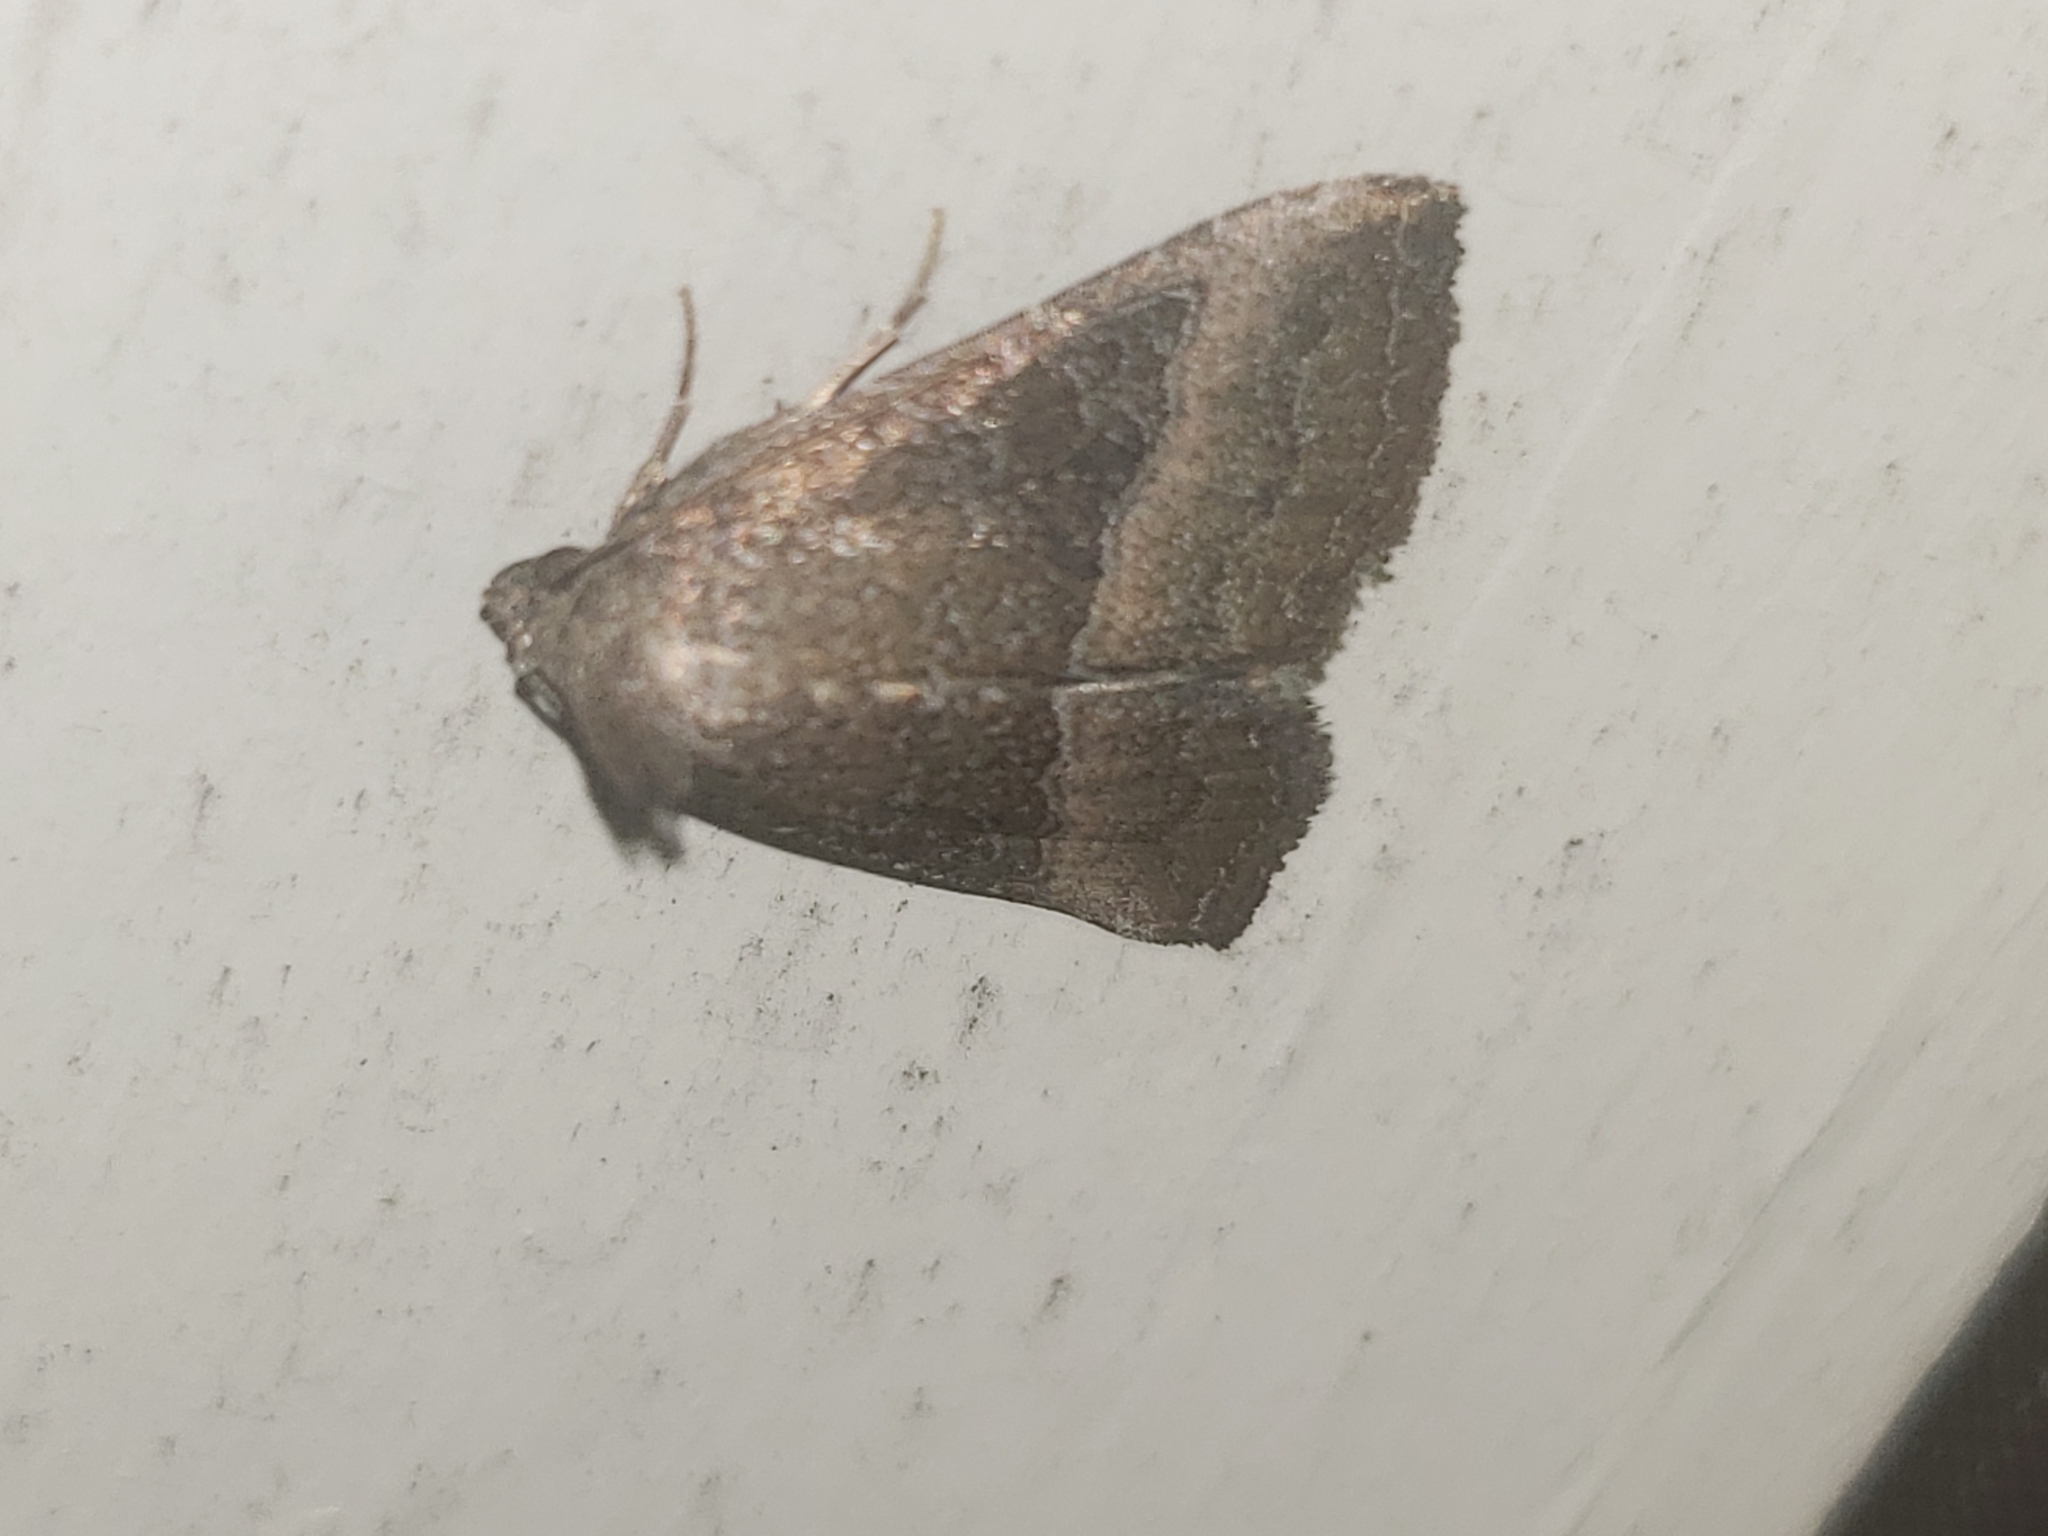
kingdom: Animalia
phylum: Arthropoda
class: Insecta
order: Lepidoptera
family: Noctuidae
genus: Ogdoconta
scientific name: Ogdoconta cinereola
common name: Common pinkband
